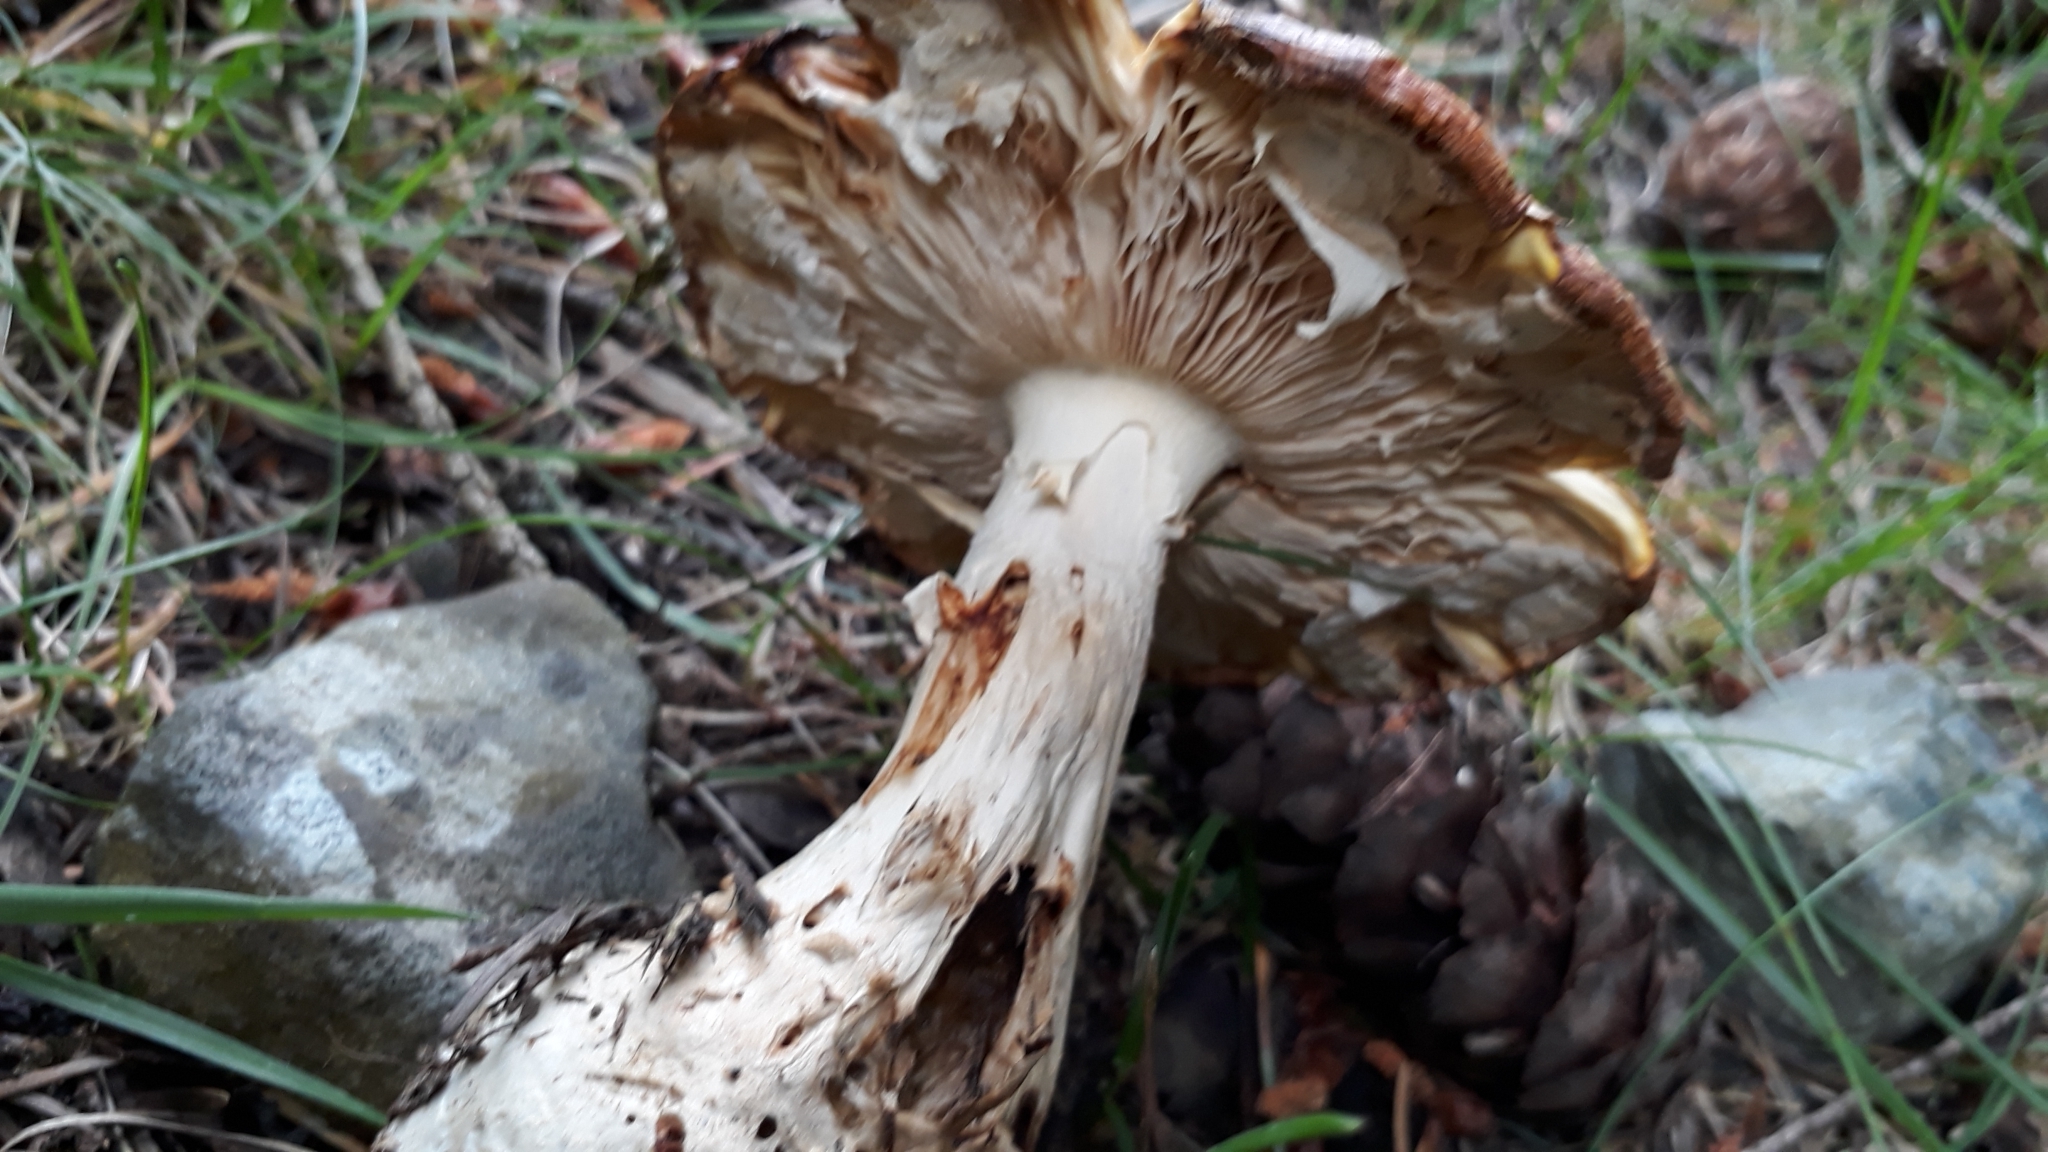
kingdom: Fungi
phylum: Basidiomycota
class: Agaricomycetes
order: Agaricales
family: Amanitaceae
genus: Amanita
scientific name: Amanita muscaria
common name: Fly agaric
